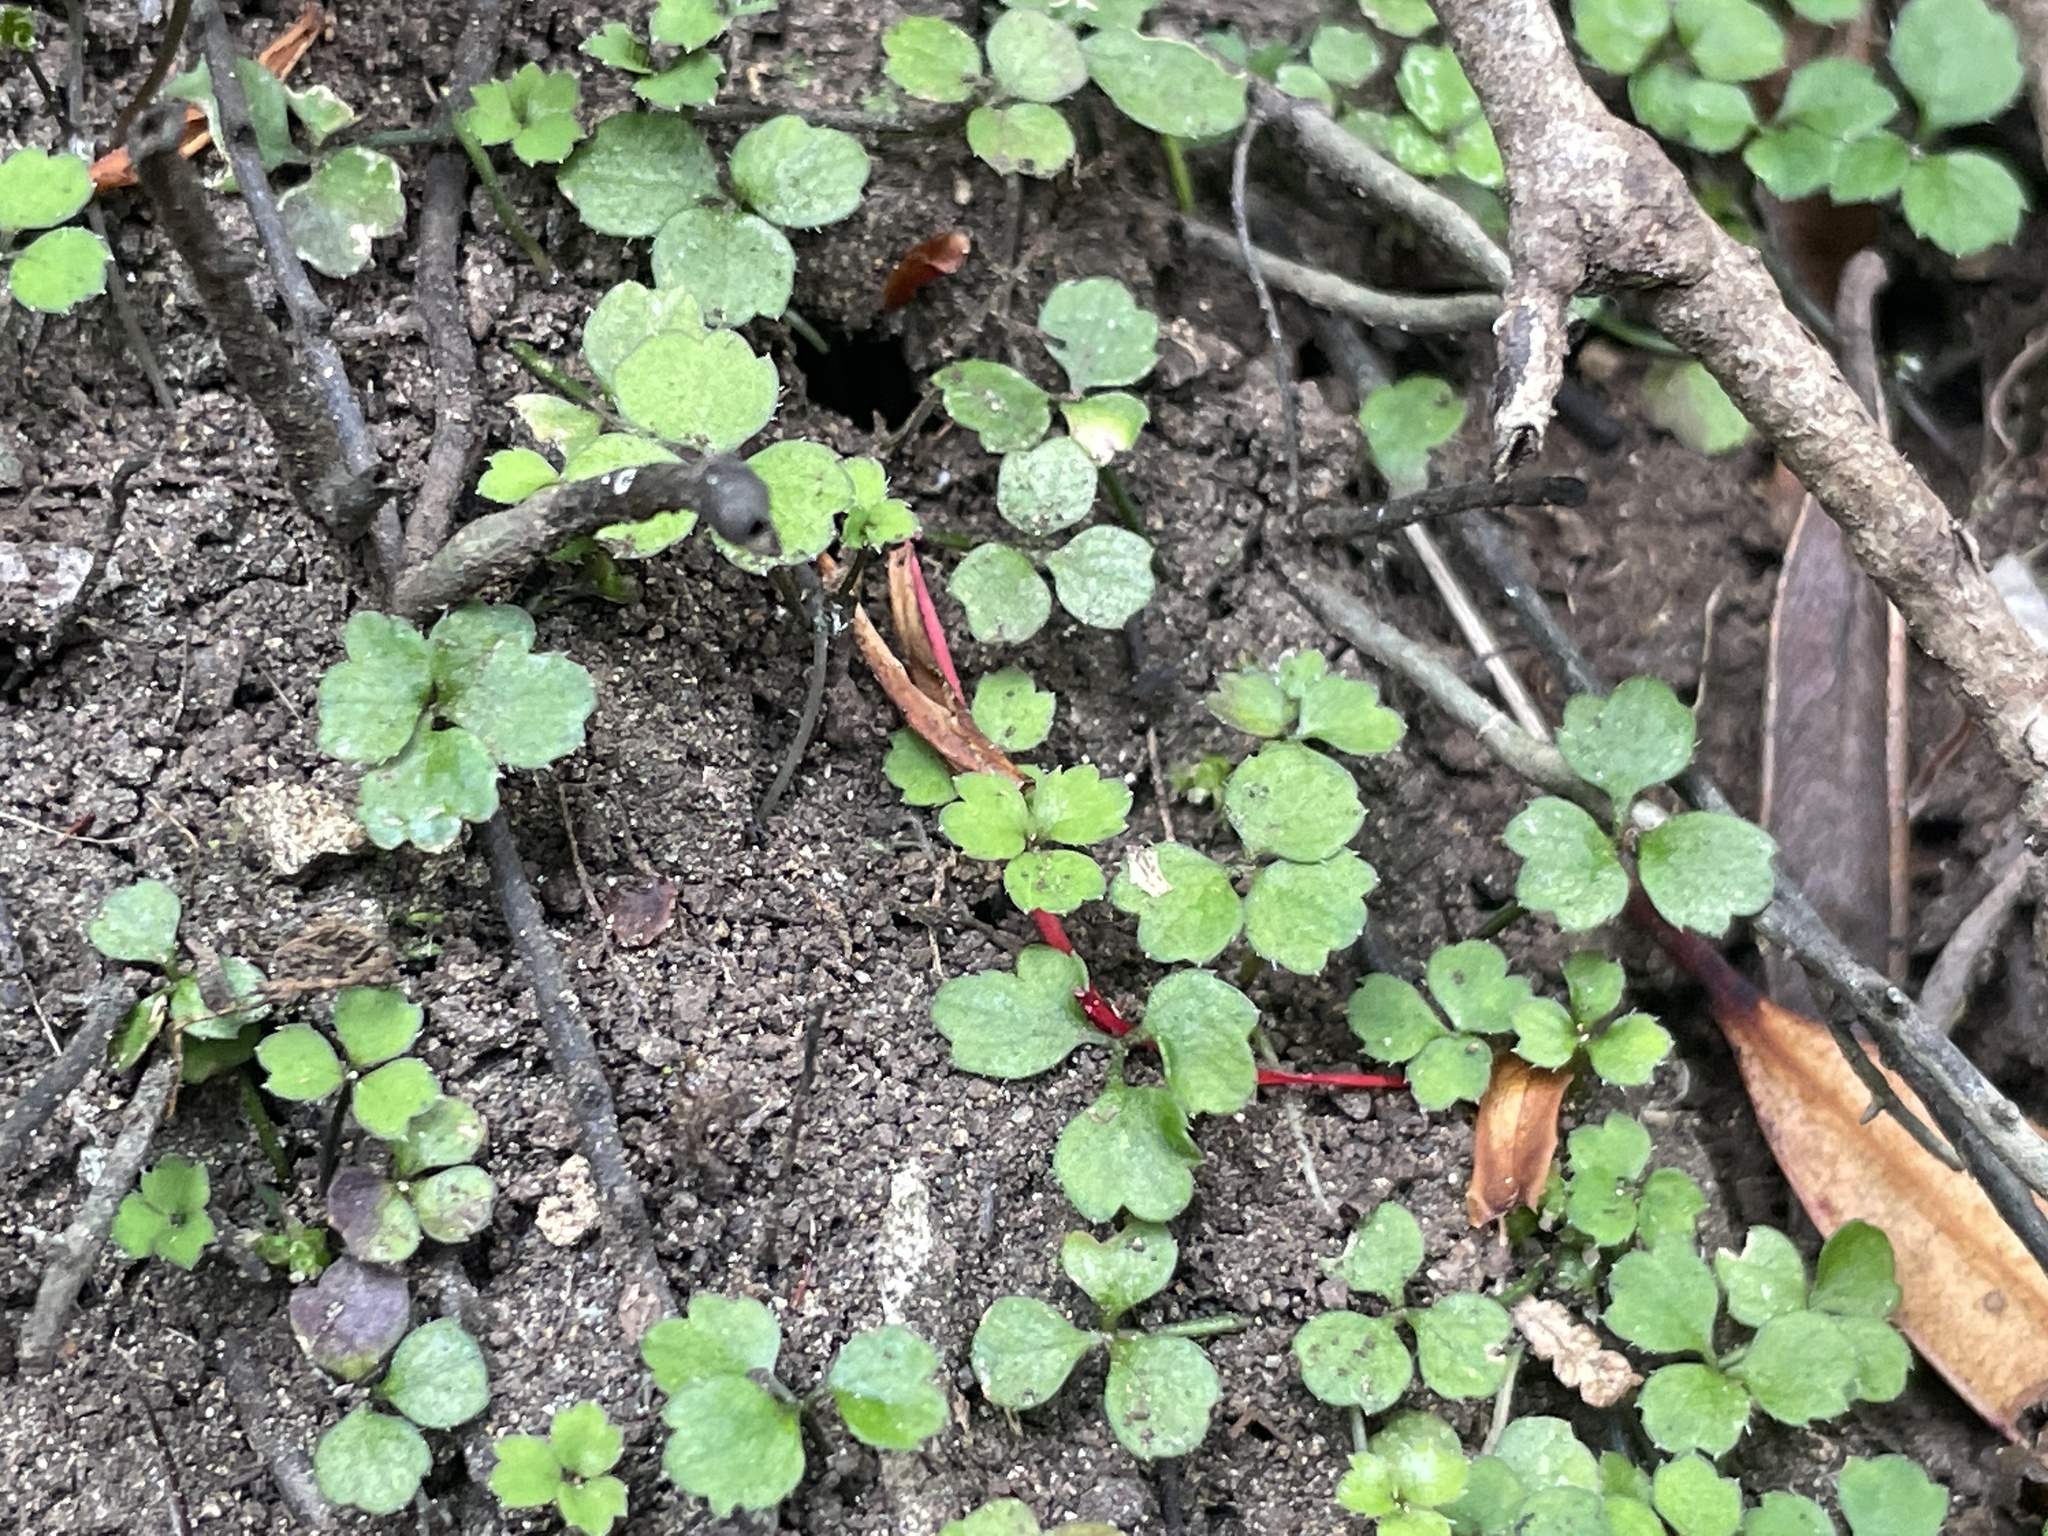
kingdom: Plantae
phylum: Tracheophyta
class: Magnoliopsida
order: Apiales
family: Apiaceae
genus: Azorella
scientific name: Azorella hookeri
